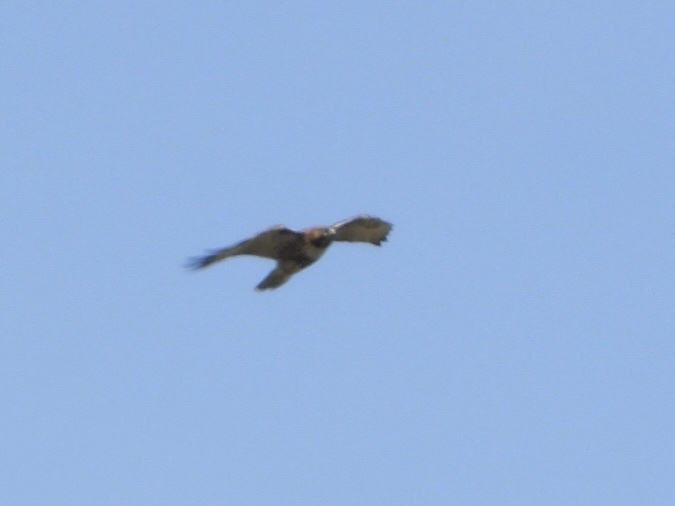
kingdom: Animalia
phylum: Chordata
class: Aves
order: Accipitriformes
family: Accipitridae
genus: Buteo
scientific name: Buteo jamaicensis
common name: Red-tailed hawk
